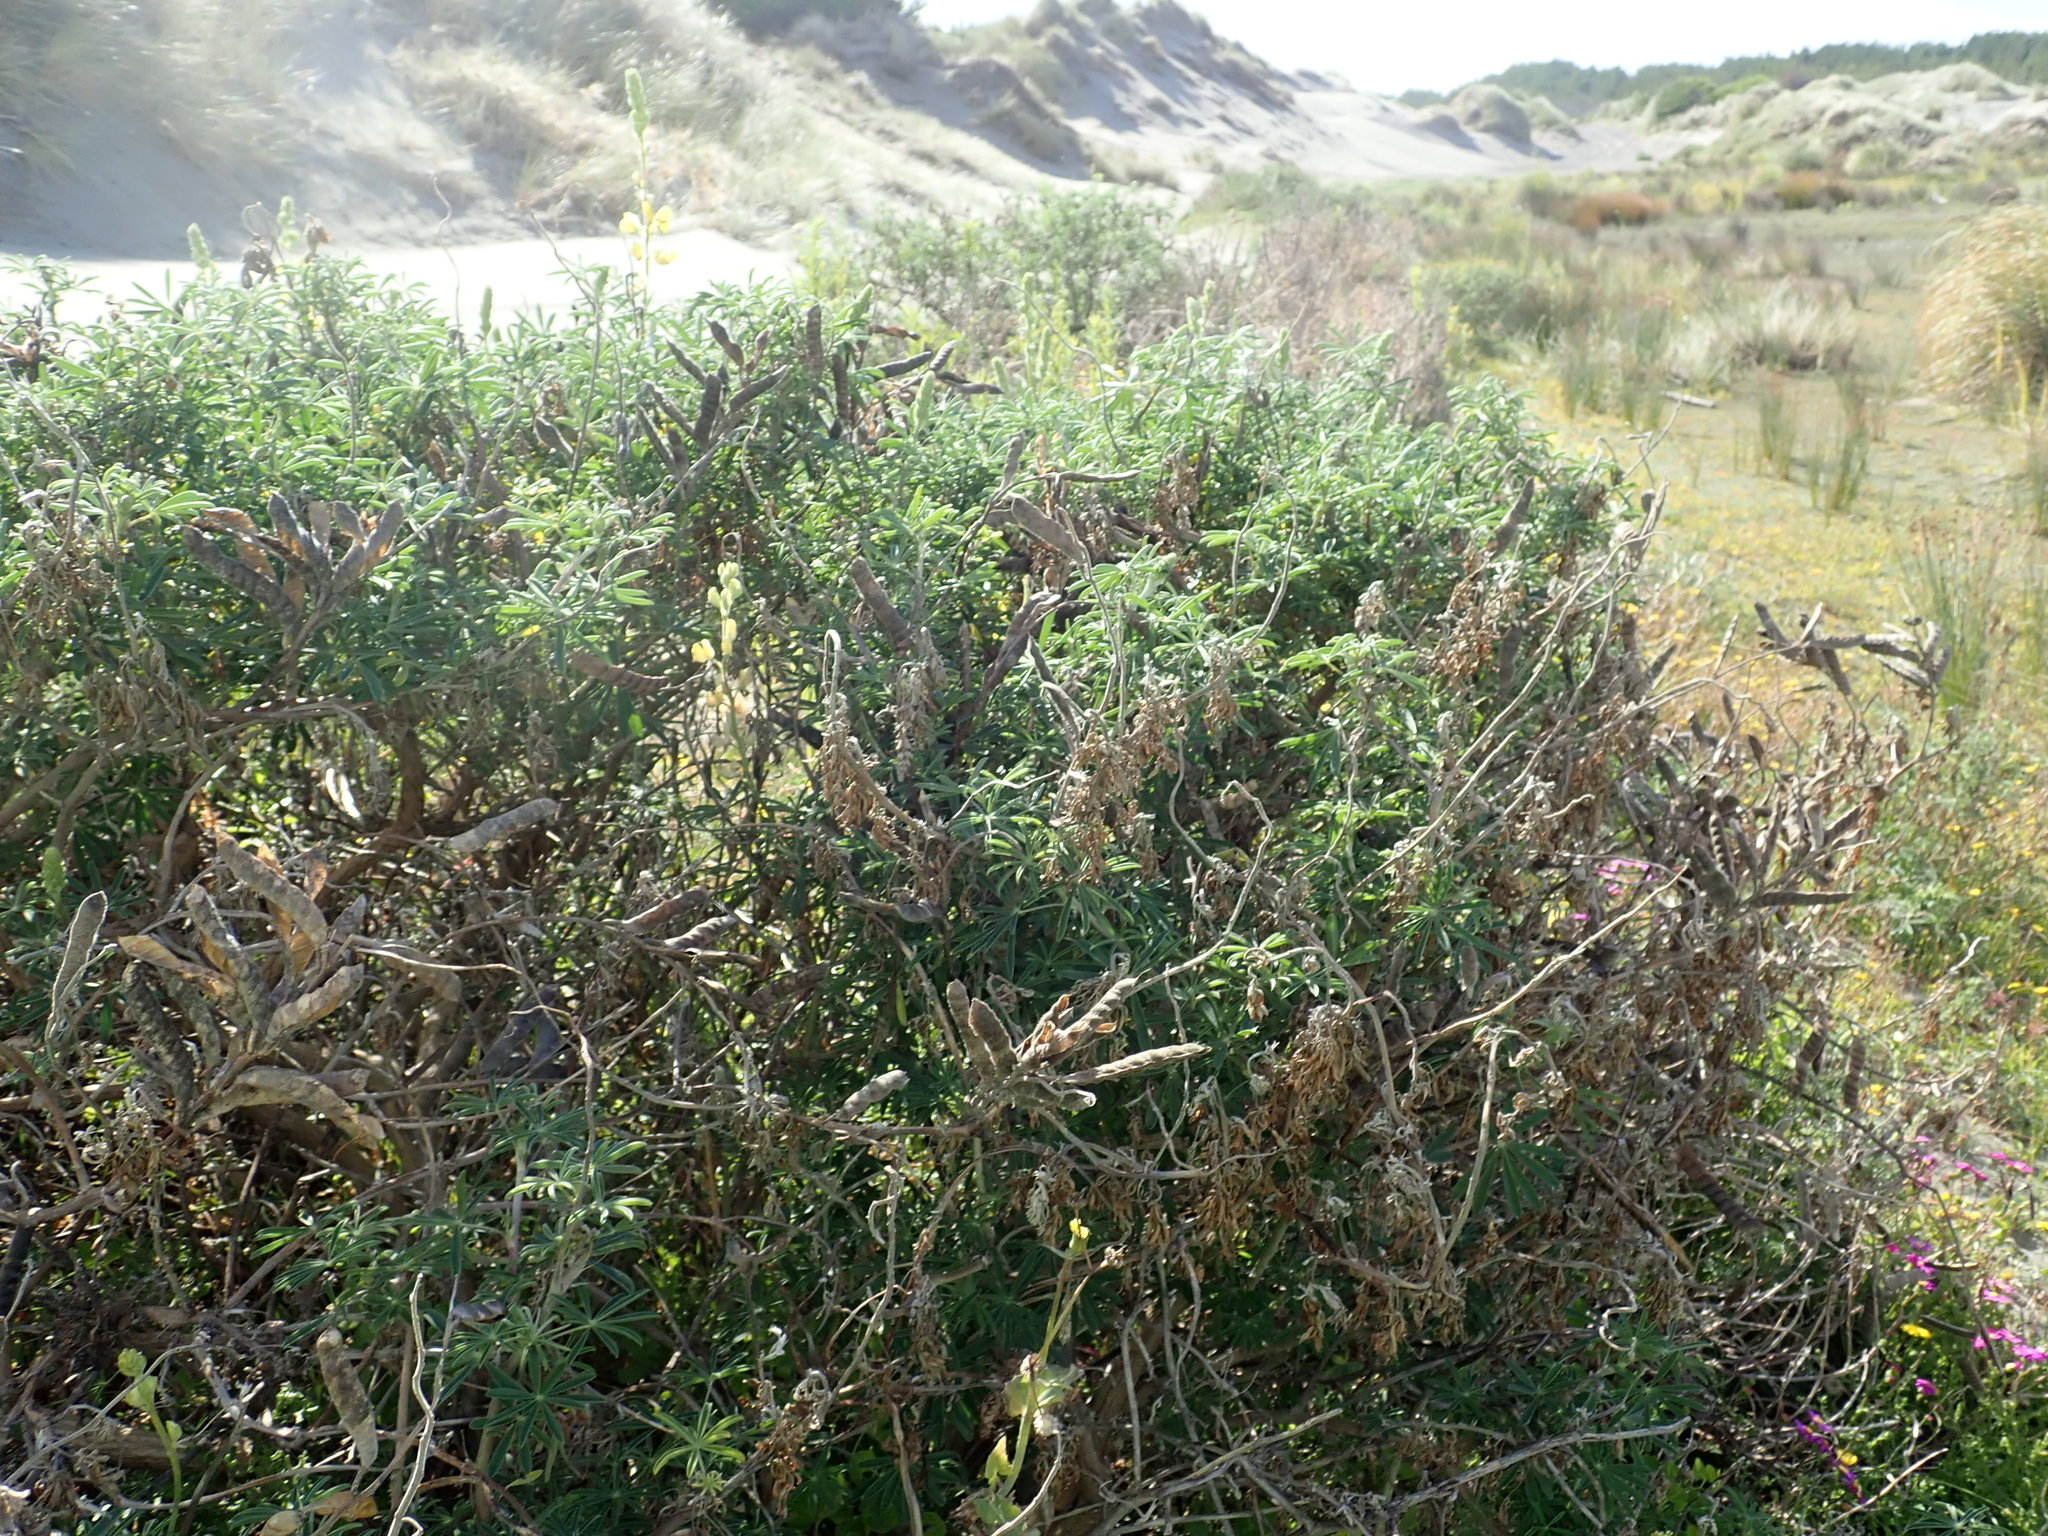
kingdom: Plantae
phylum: Tracheophyta
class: Magnoliopsida
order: Fabales
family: Fabaceae
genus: Lupinus
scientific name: Lupinus arboreus
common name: Yellow bush lupine
